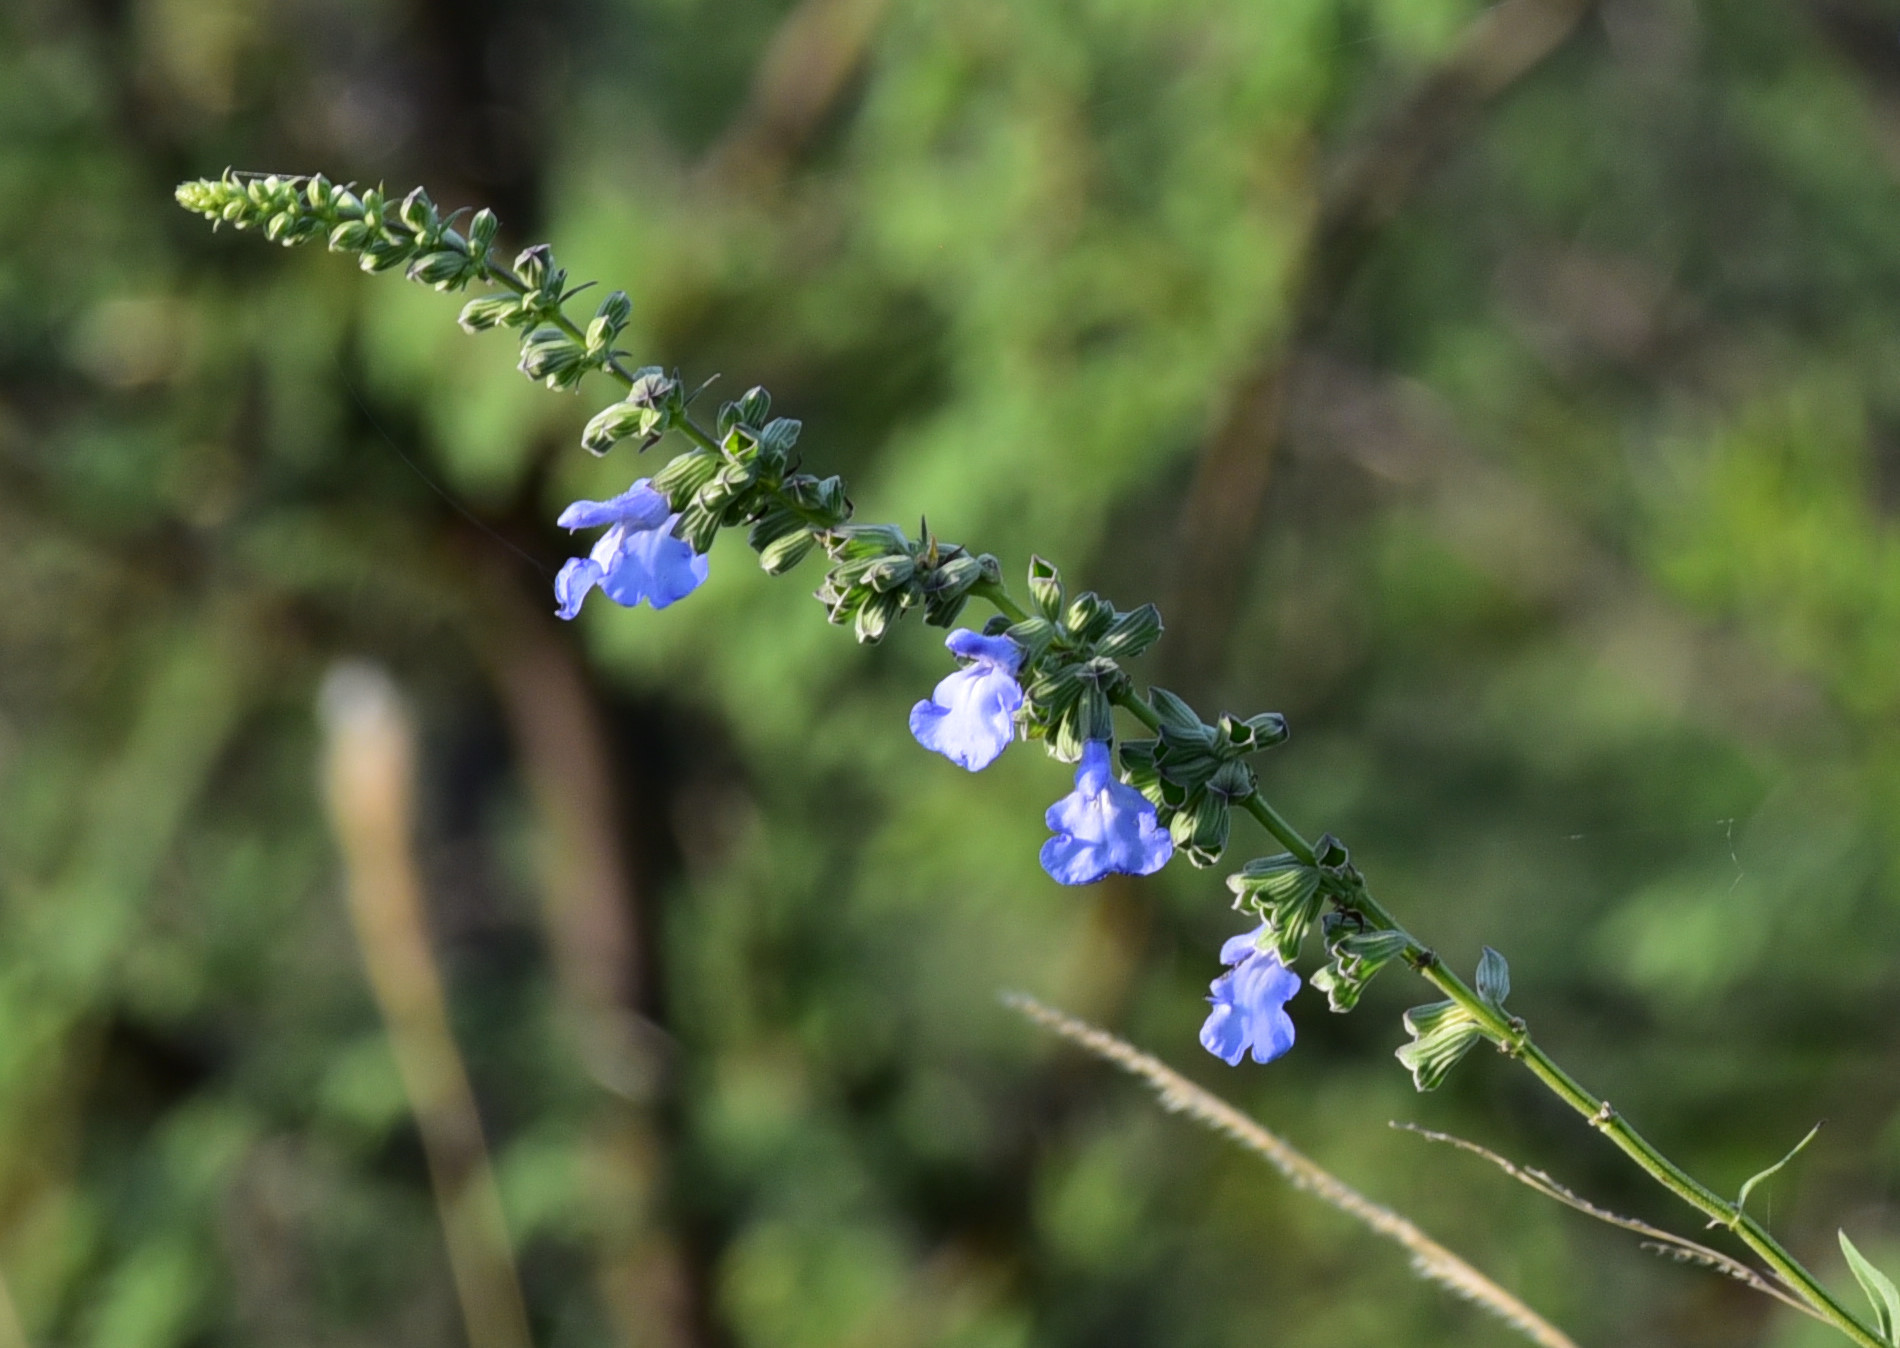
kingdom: Plantae
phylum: Tracheophyta
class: Magnoliopsida
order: Lamiales
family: Lamiaceae
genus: Salvia
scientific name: Salvia azurea
